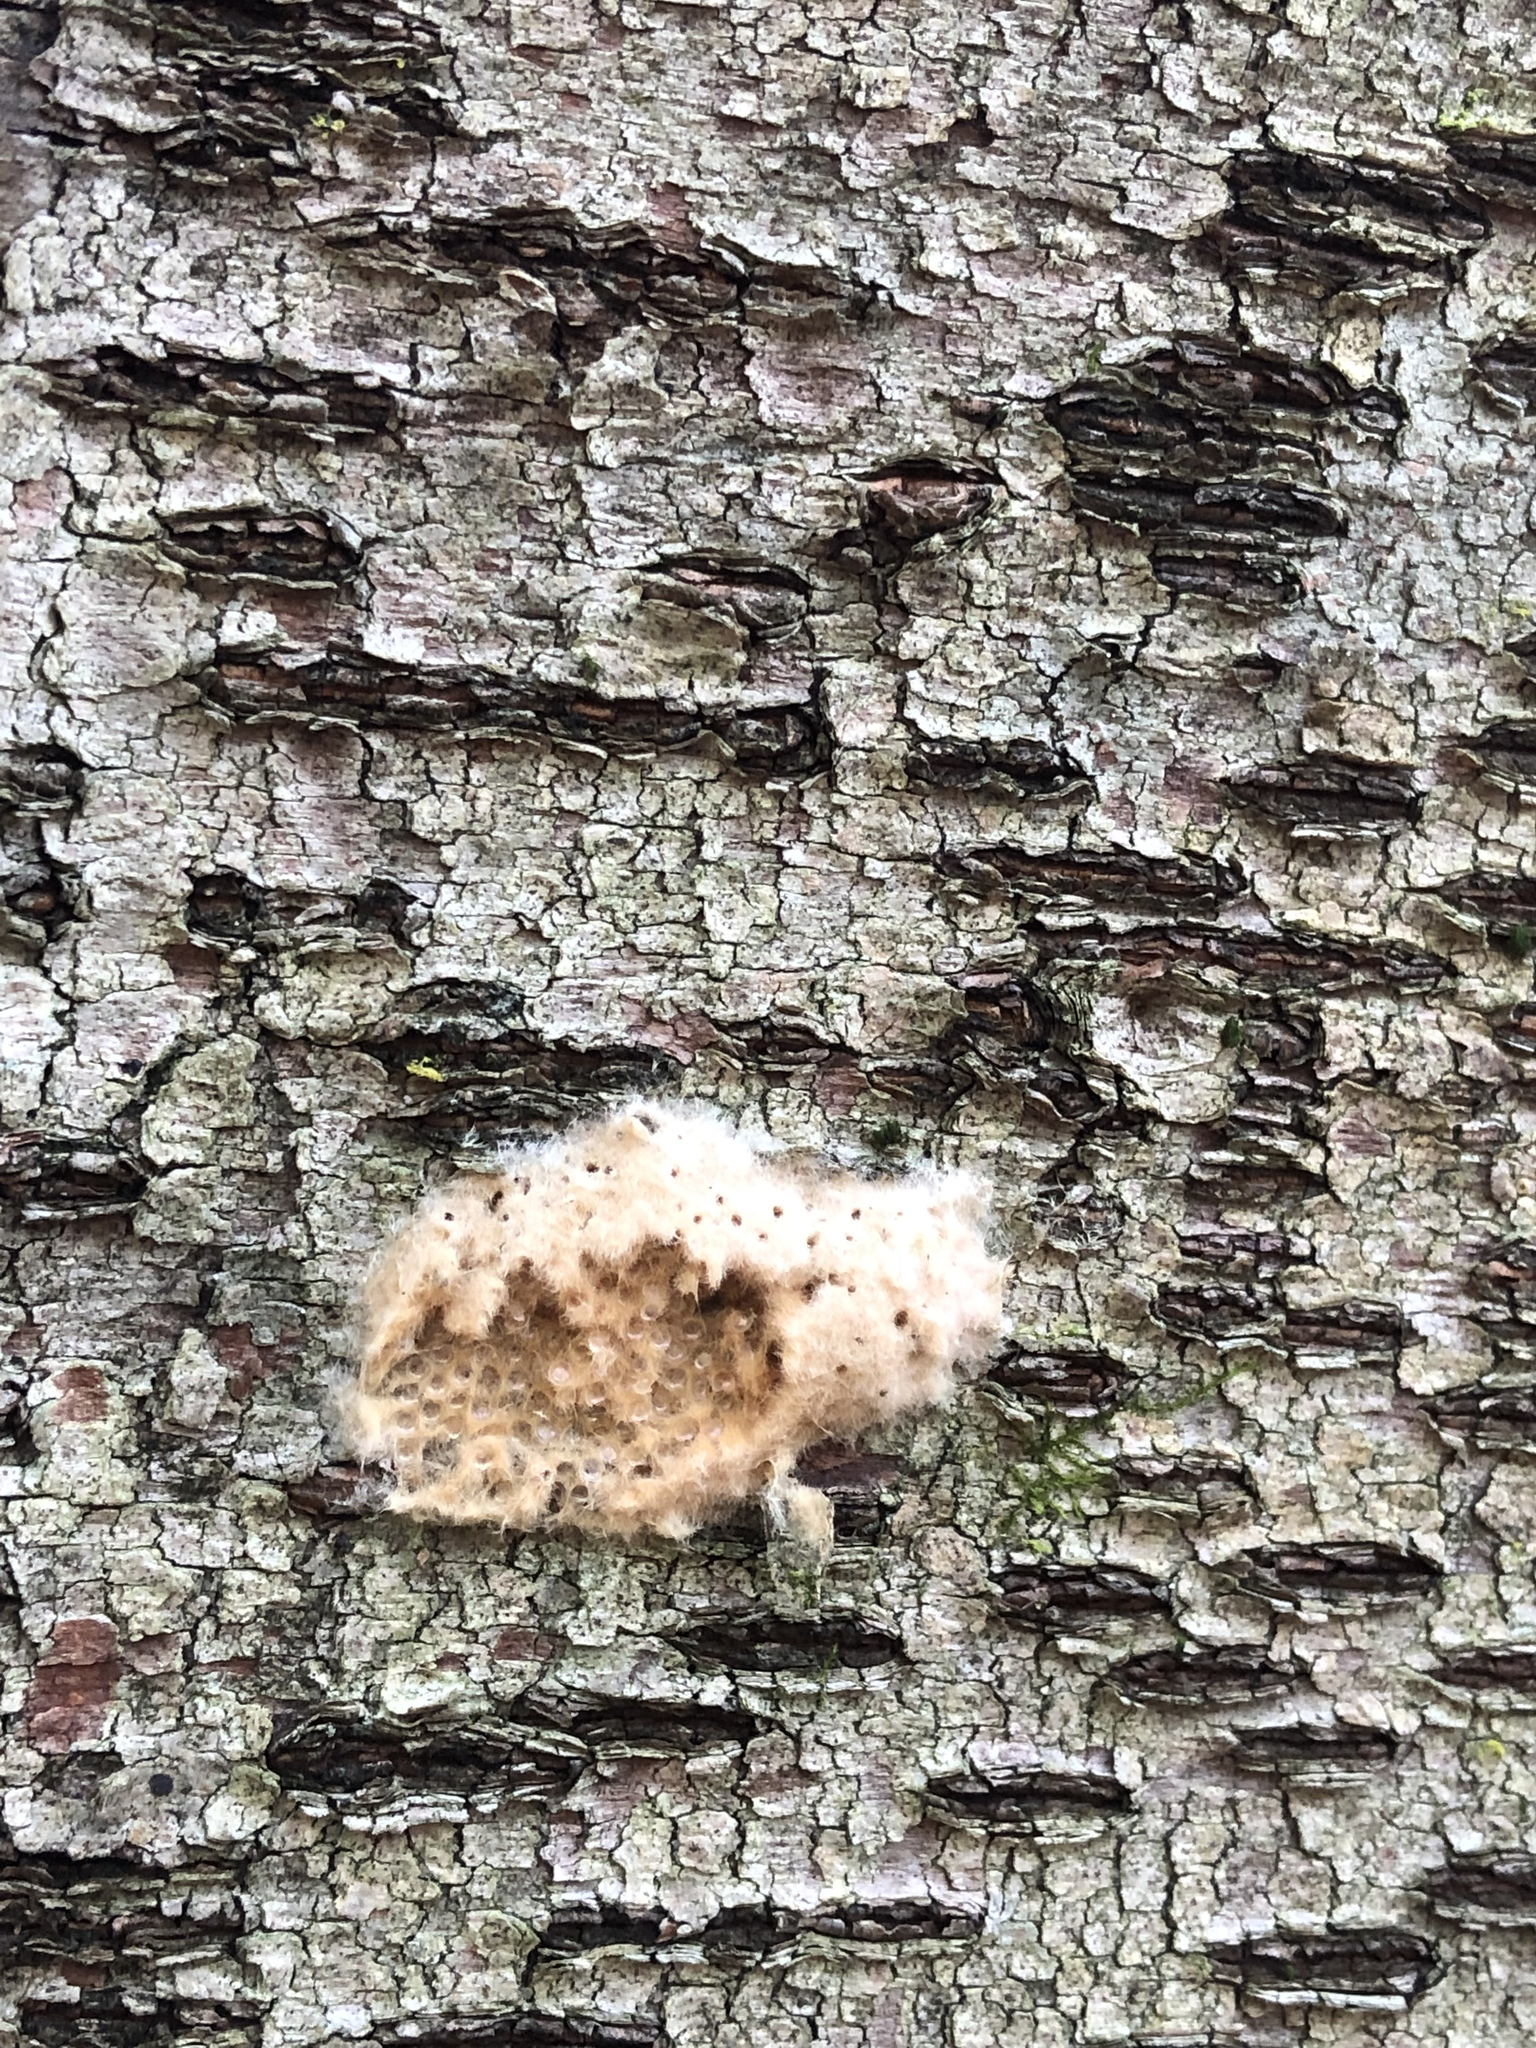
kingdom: Animalia
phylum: Arthropoda
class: Insecta
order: Lepidoptera
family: Erebidae
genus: Lymantria
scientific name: Lymantria dispar
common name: Gypsy moth
